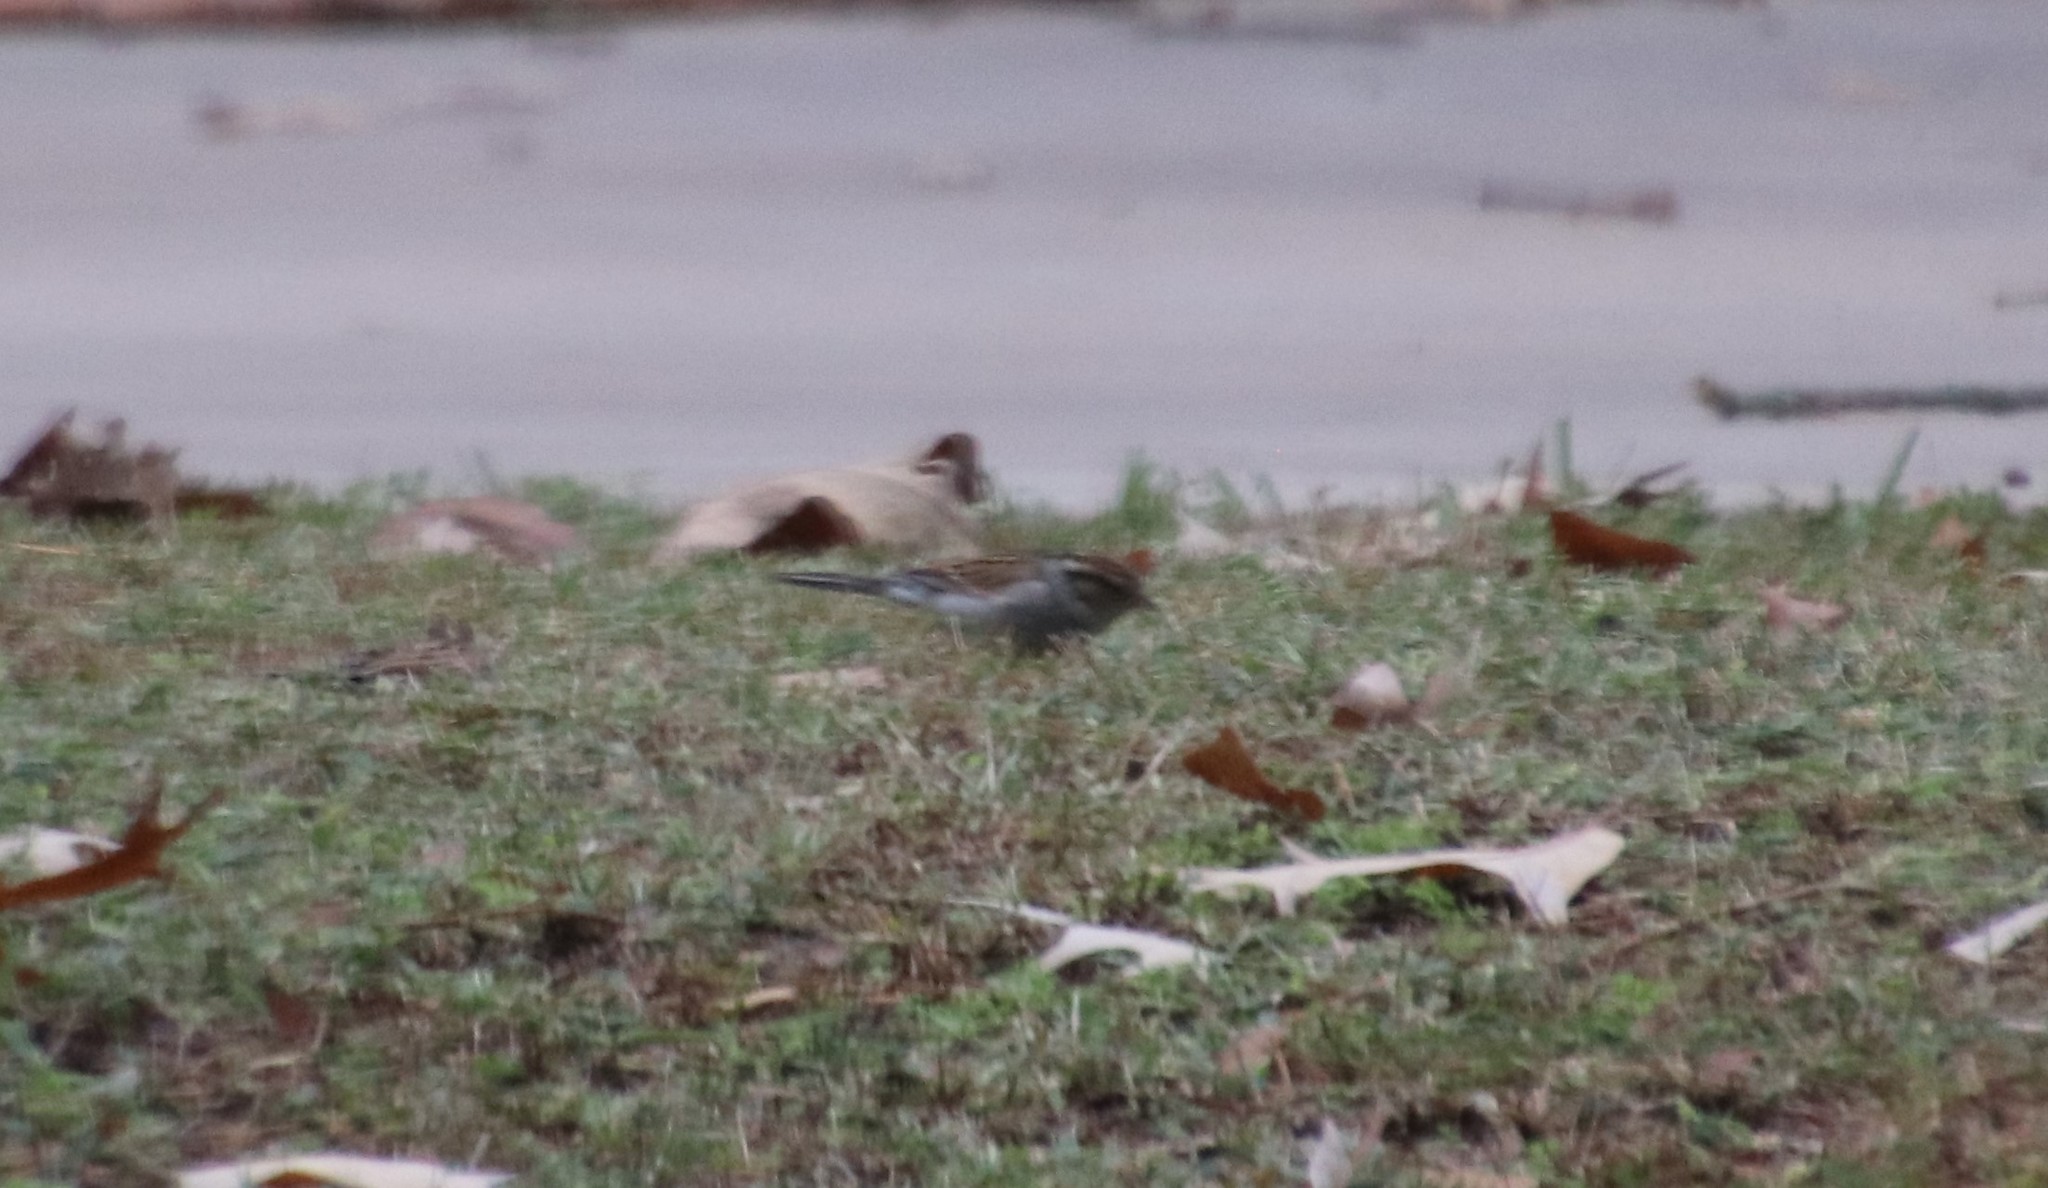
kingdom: Animalia
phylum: Chordata
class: Aves
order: Passeriformes
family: Passerellidae
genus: Spizella
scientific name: Spizella passerina
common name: Chipping sparrow
